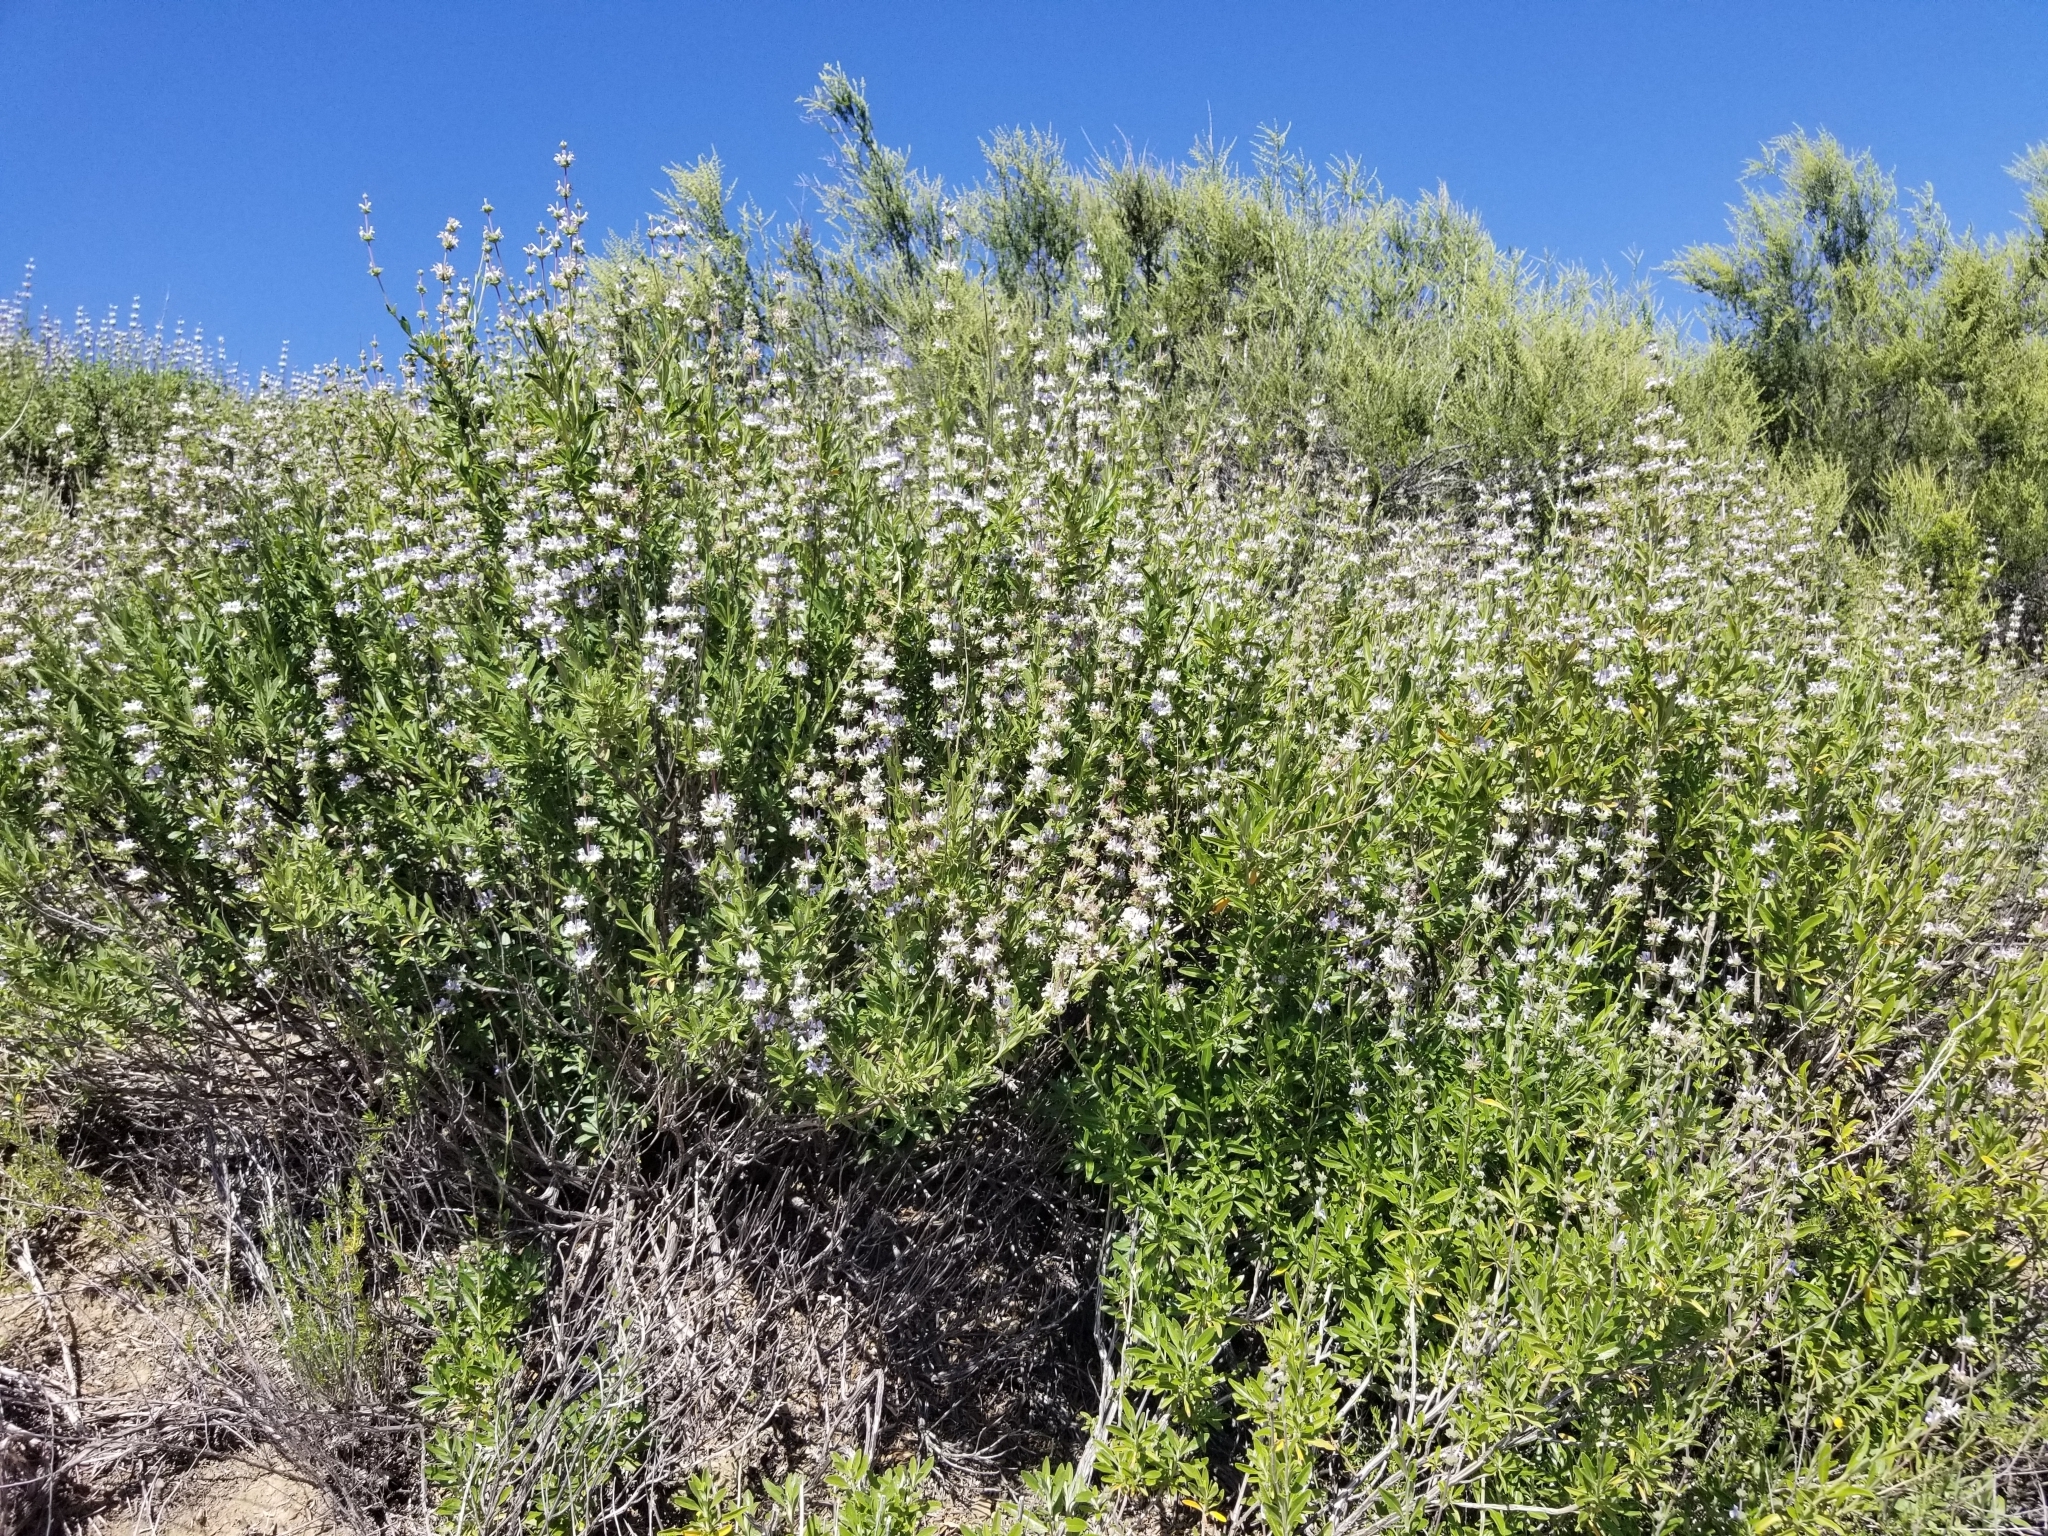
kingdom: Plantae
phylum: Tracheophyta
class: Magnoliopsida
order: Lamiales
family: Lamiaceae
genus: Salvia
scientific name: Salvia mellifera
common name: Black sage
